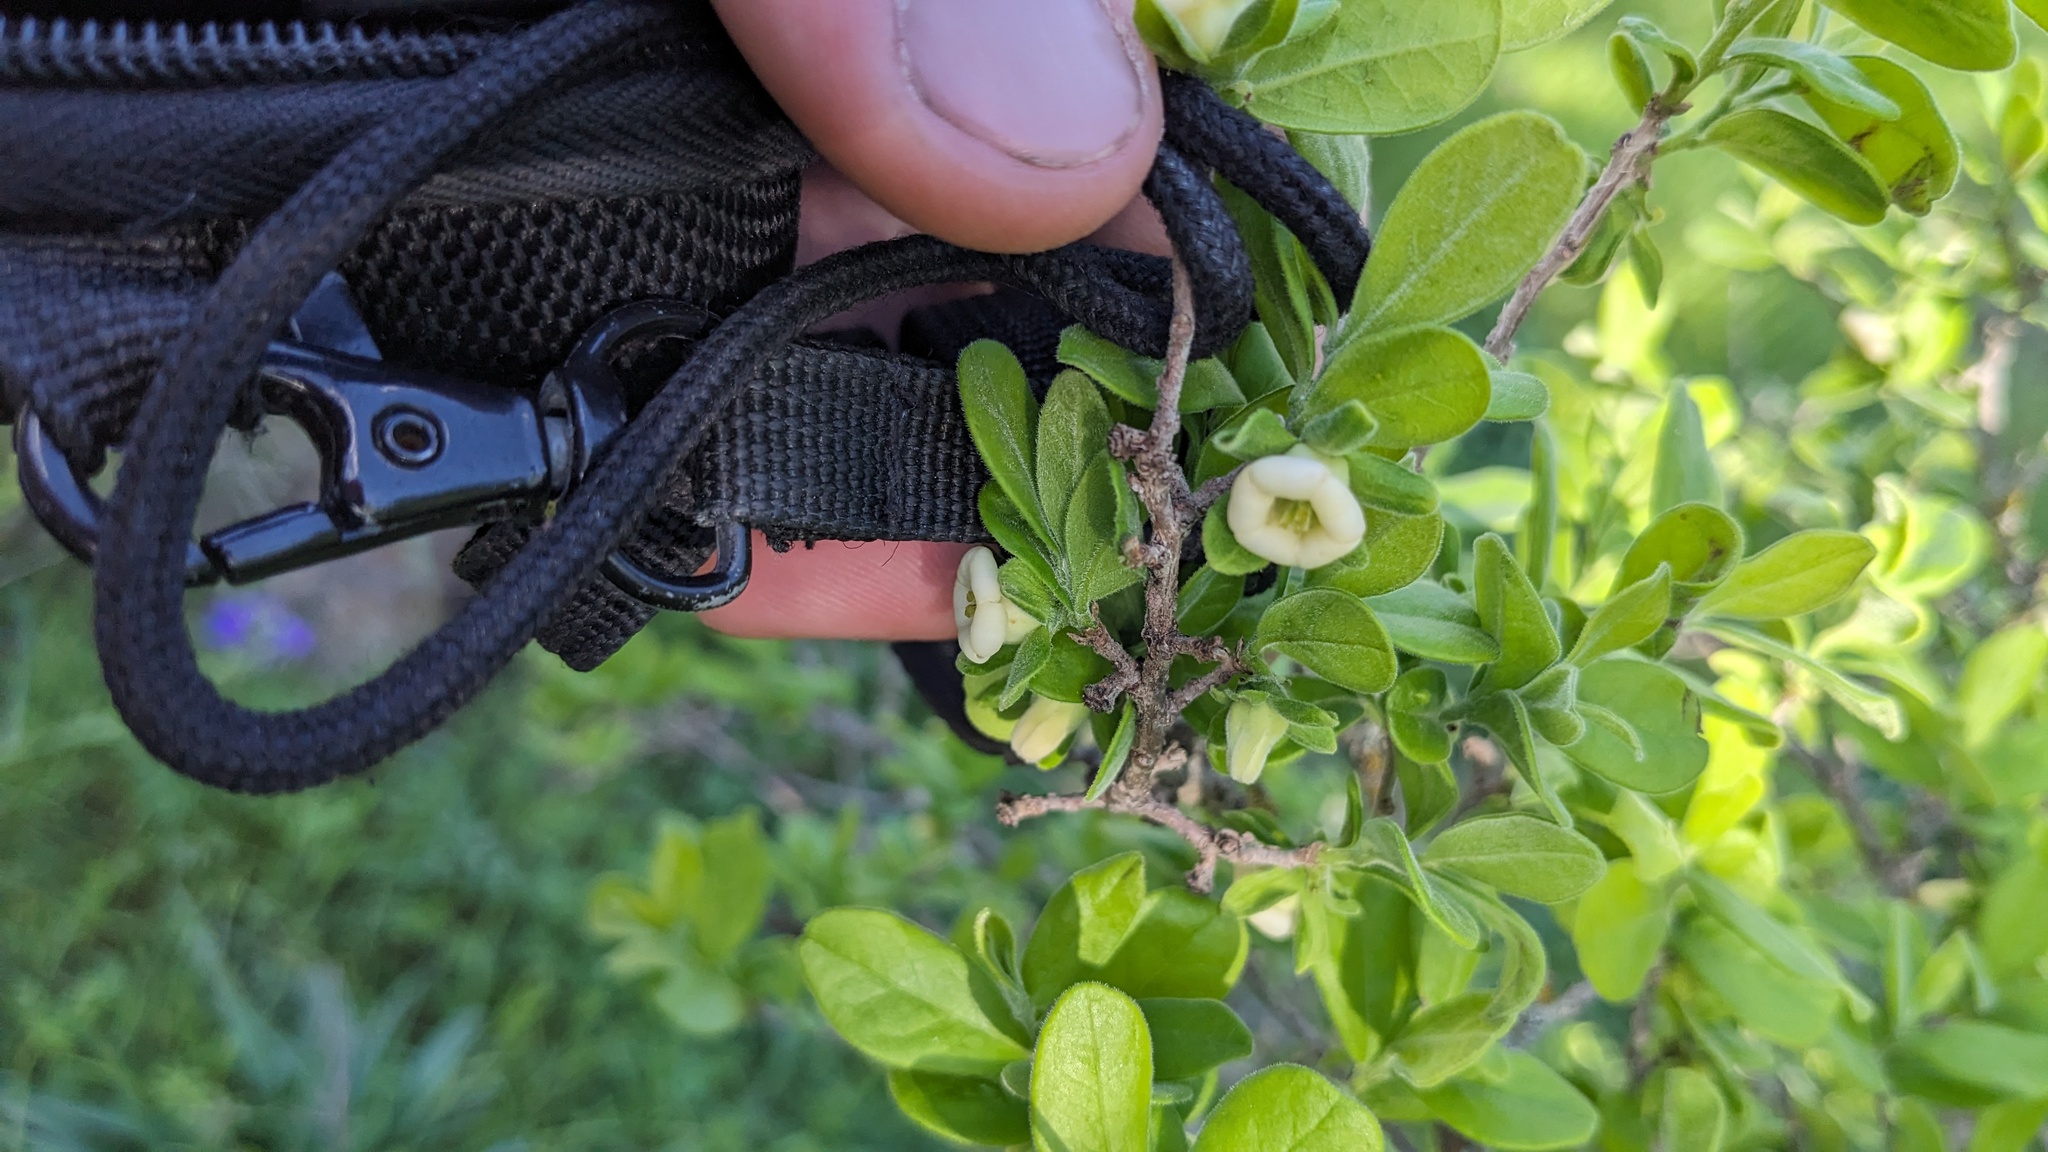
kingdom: Plantae
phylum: Tracheophyta
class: Magnoliopsida
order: Ericales
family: Ebenaceae
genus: Diospyros
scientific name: Diospyros texana
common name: Texas persimmon
